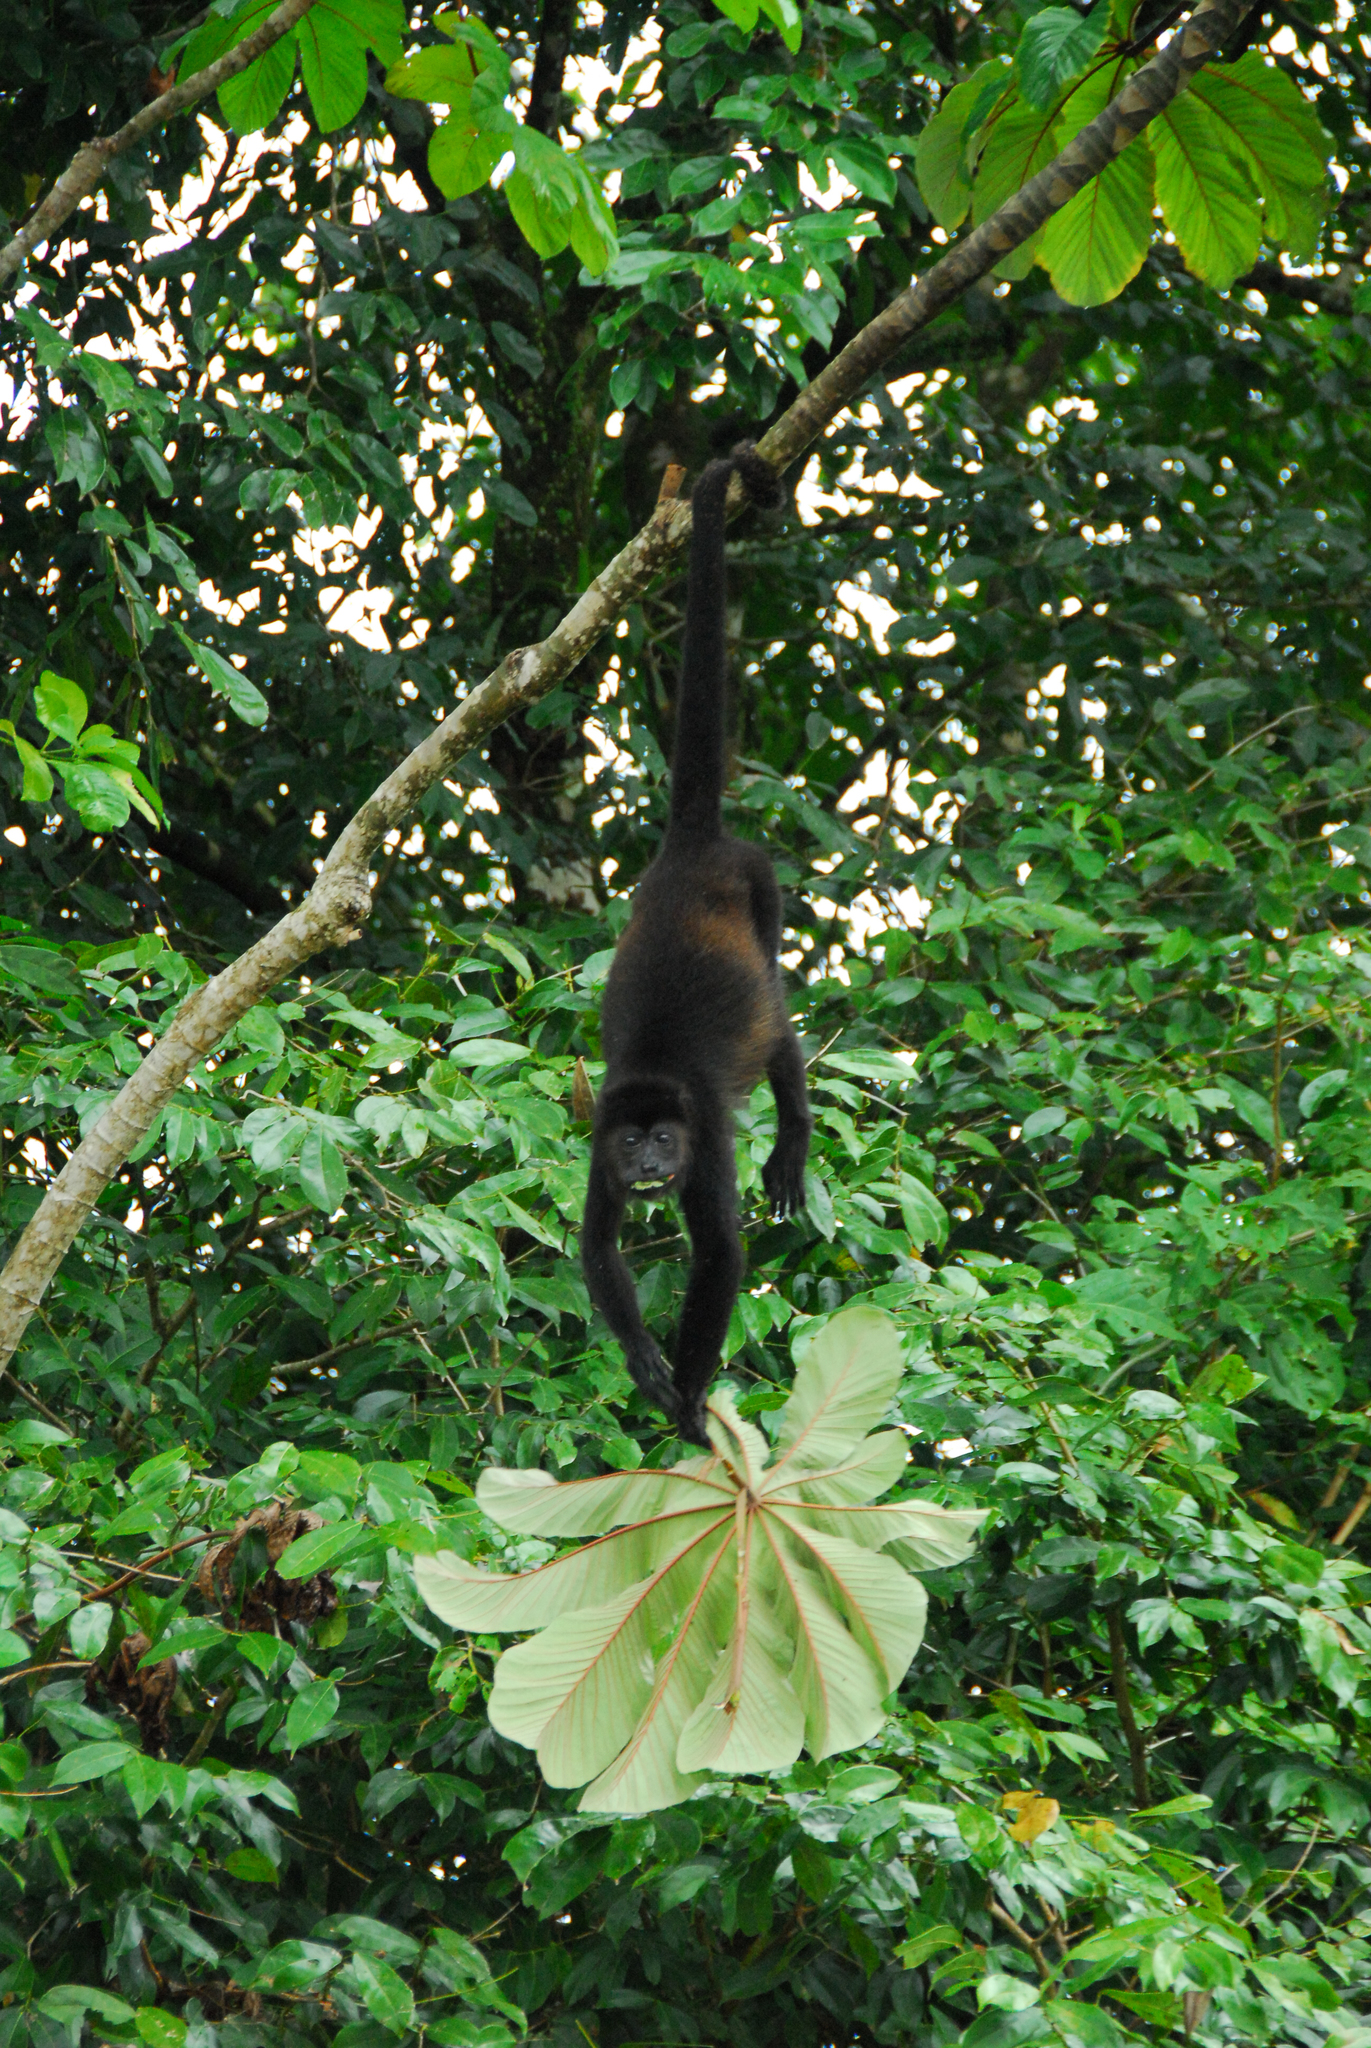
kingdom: Animalia
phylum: Chordata
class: Mammalia
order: Primates
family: Atelidae
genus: Alouatta
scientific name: Alouatta palliata
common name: Mantled howler
